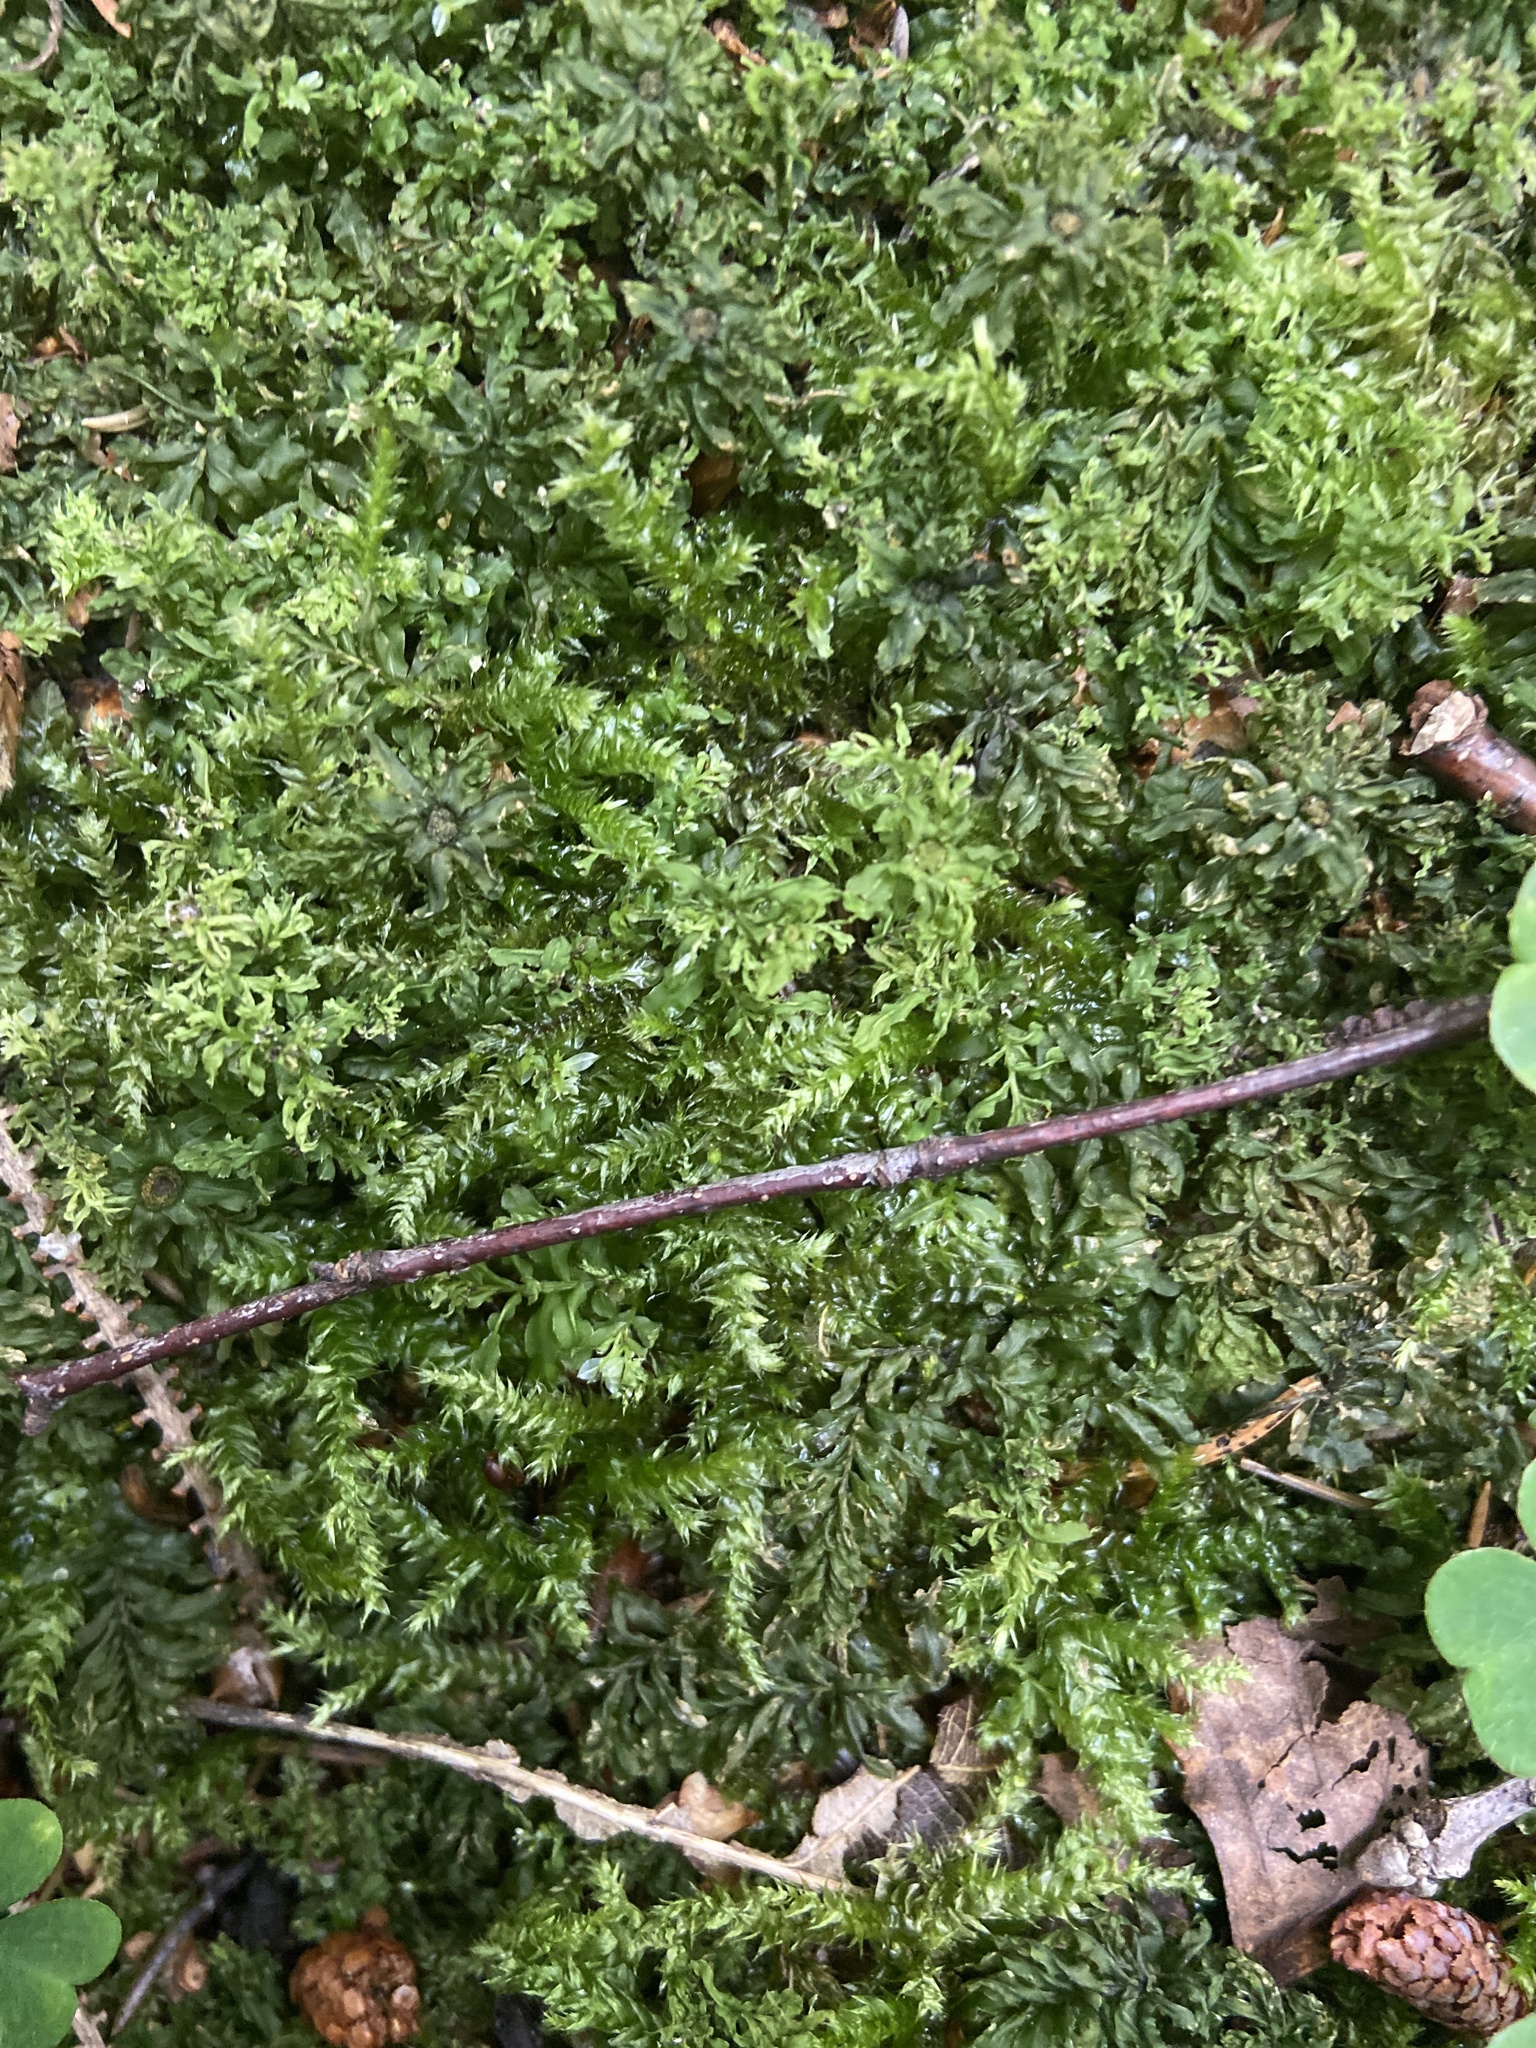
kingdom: Plantae
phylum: Bryophyta
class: Bryopsida
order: Bryales
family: Mniaceae
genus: Plagiomnium
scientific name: Plagiomnium undulatum
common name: Hart's-tongue thyme-moss
